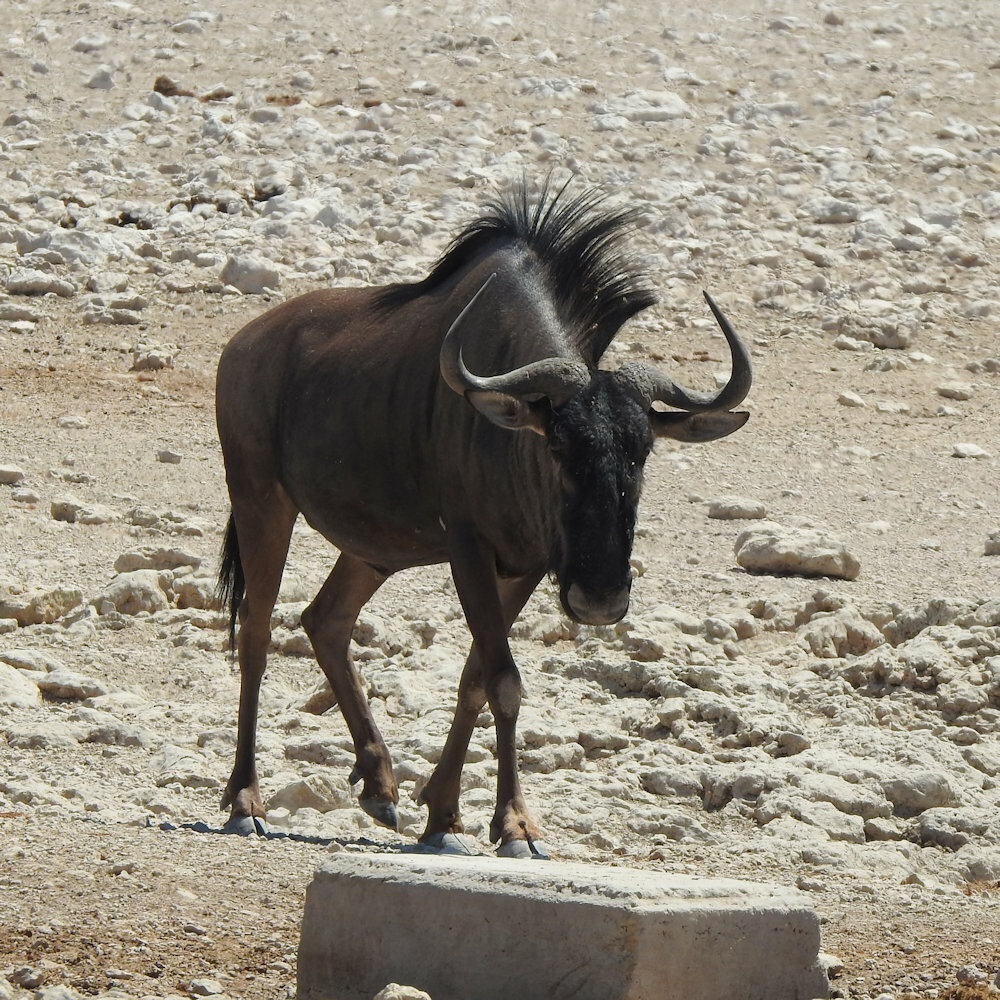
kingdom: Animalia
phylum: Chordata
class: Mammalia
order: Artiodactyla
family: Bovidae
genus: Connochaetes
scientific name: Connochaetes taurinus
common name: Blue wildebeest
